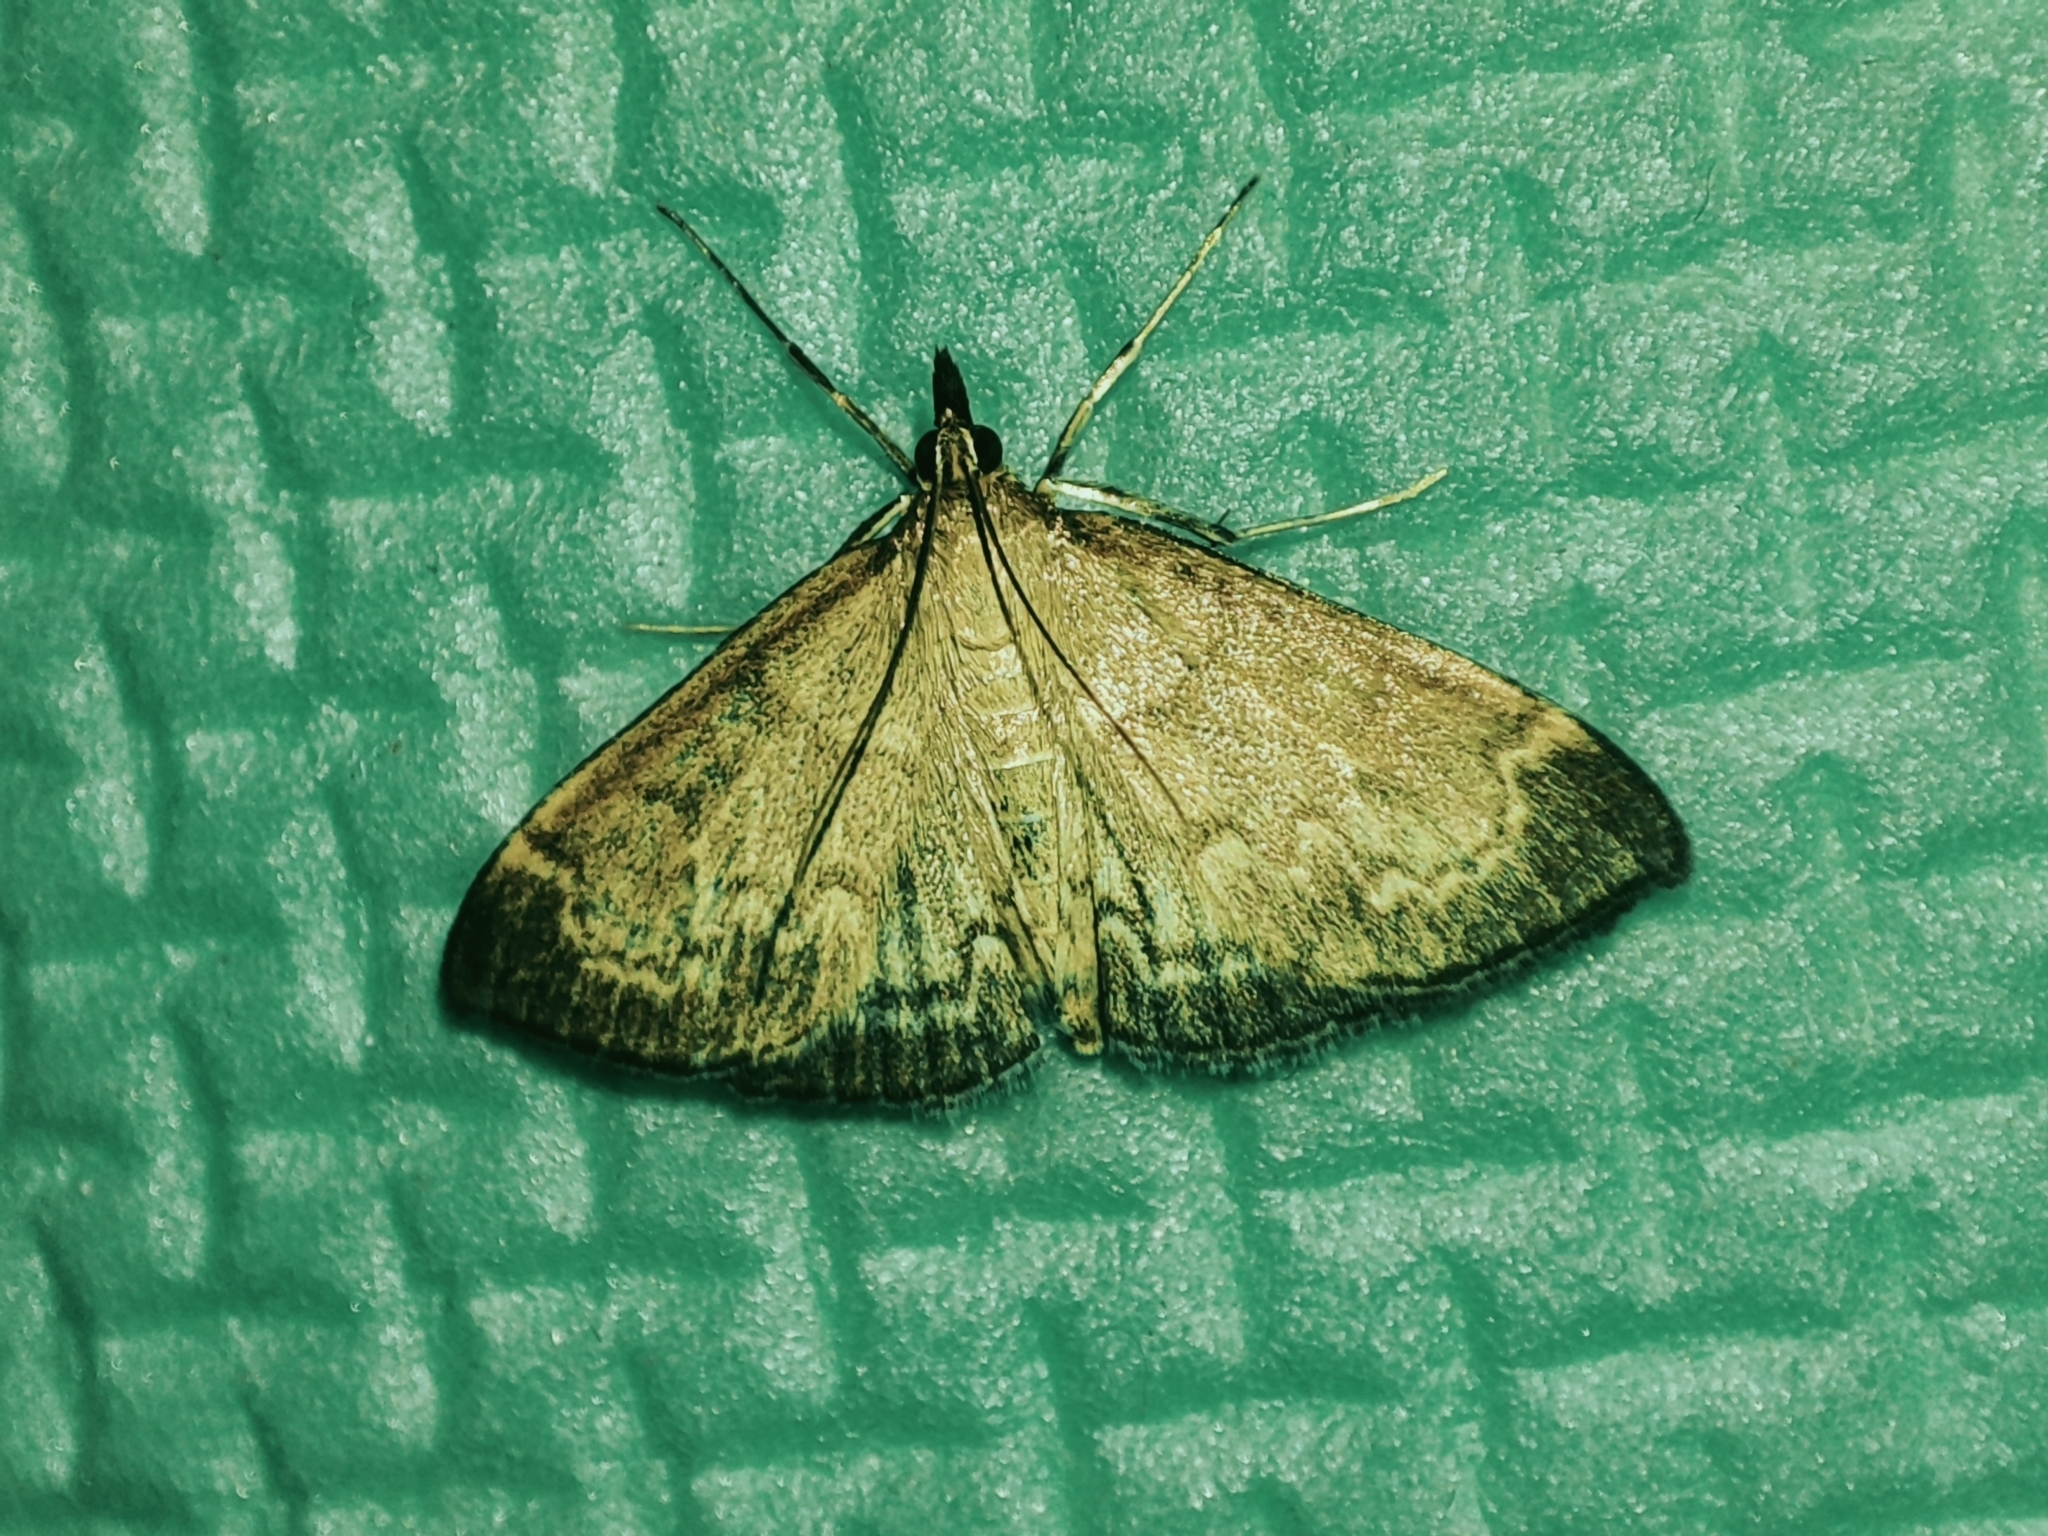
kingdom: Animalia
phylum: Arthropoda
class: Insecta
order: Lepidoptera
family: Crambidae
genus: Anania
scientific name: Anania fuscalis
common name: Cinerous pearl
